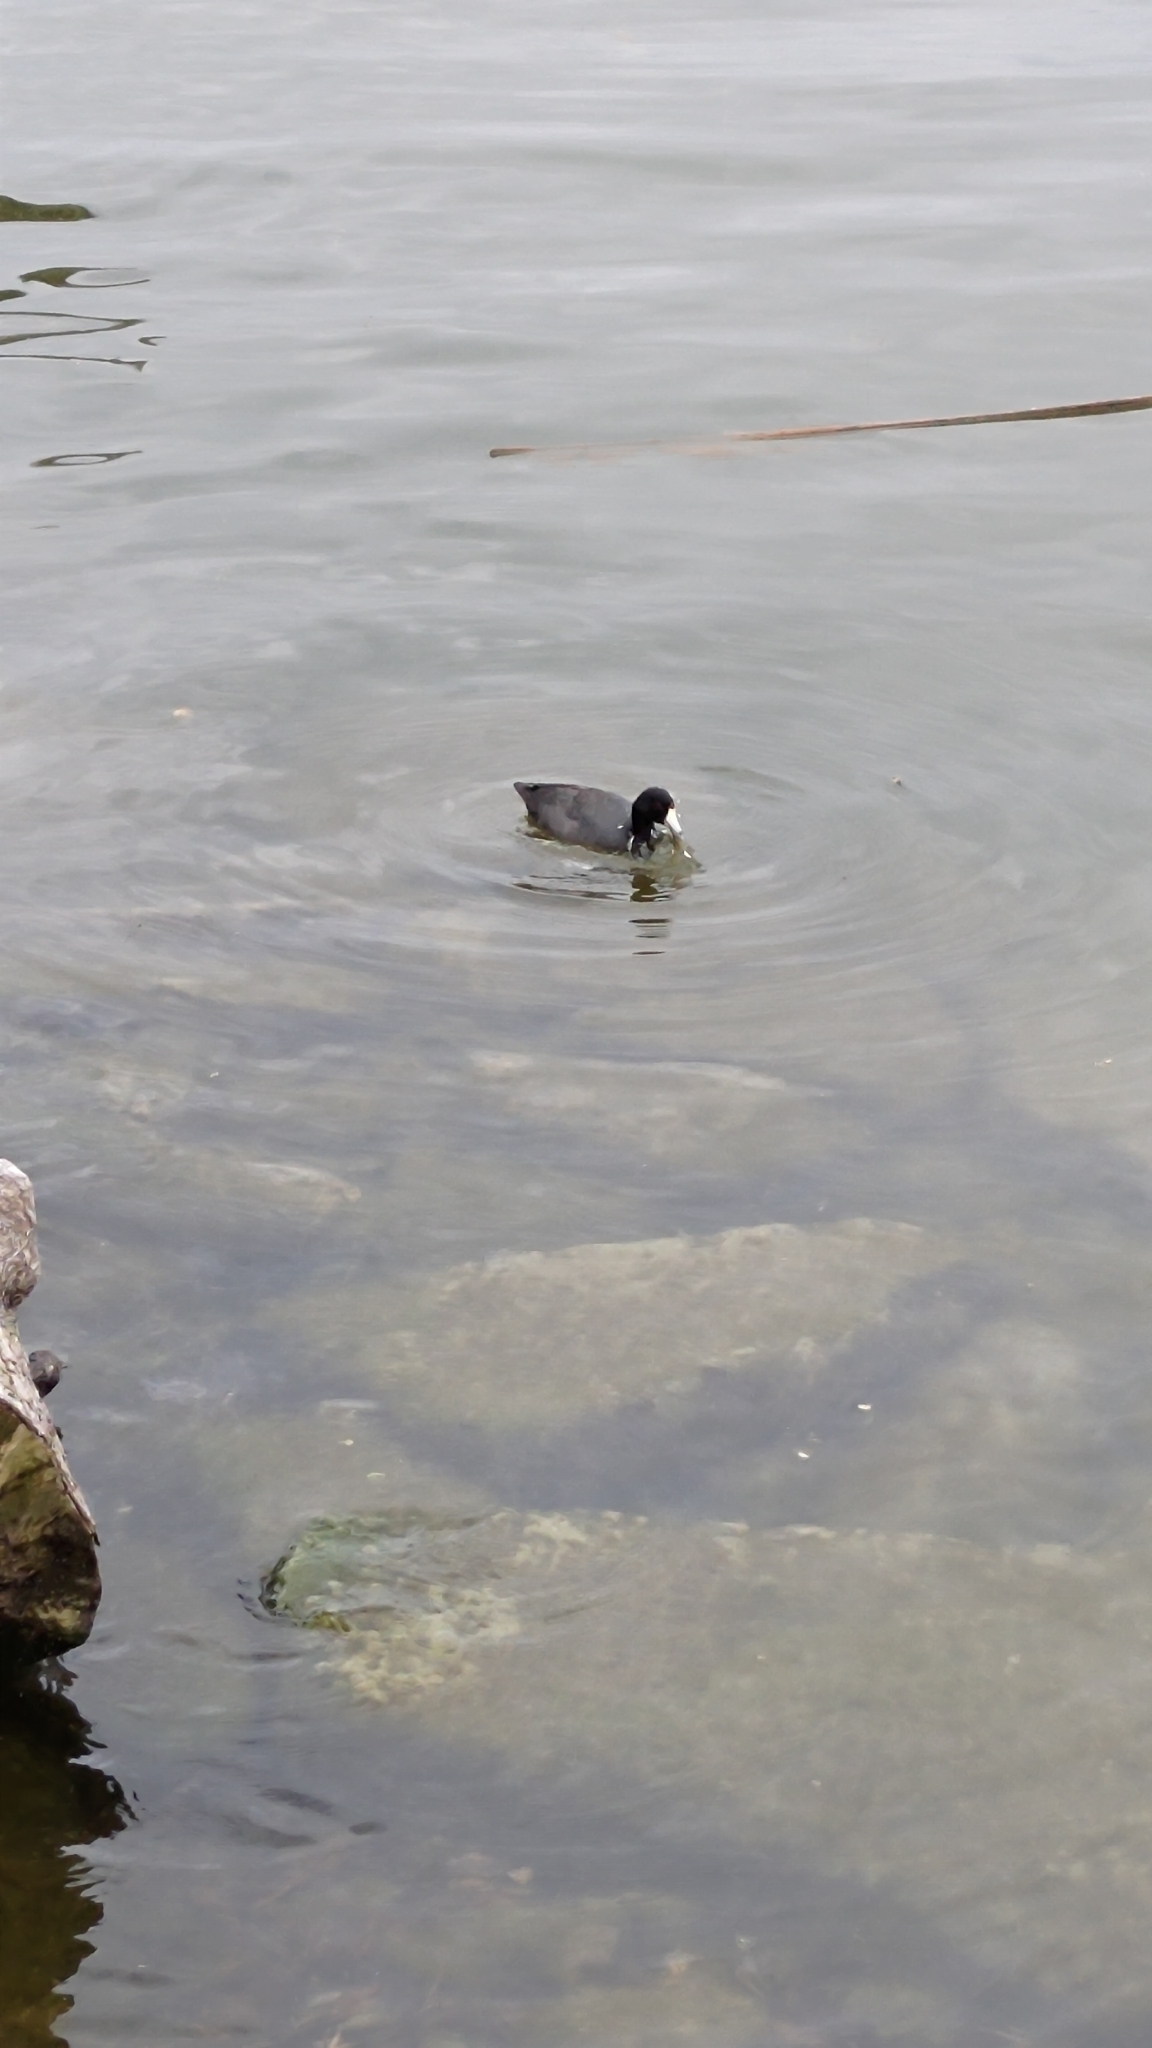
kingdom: Animalia
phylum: Chordata
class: Aves
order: Gruiformes
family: Rallidae
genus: Fulica
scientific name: Fulica americana
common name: American coot
